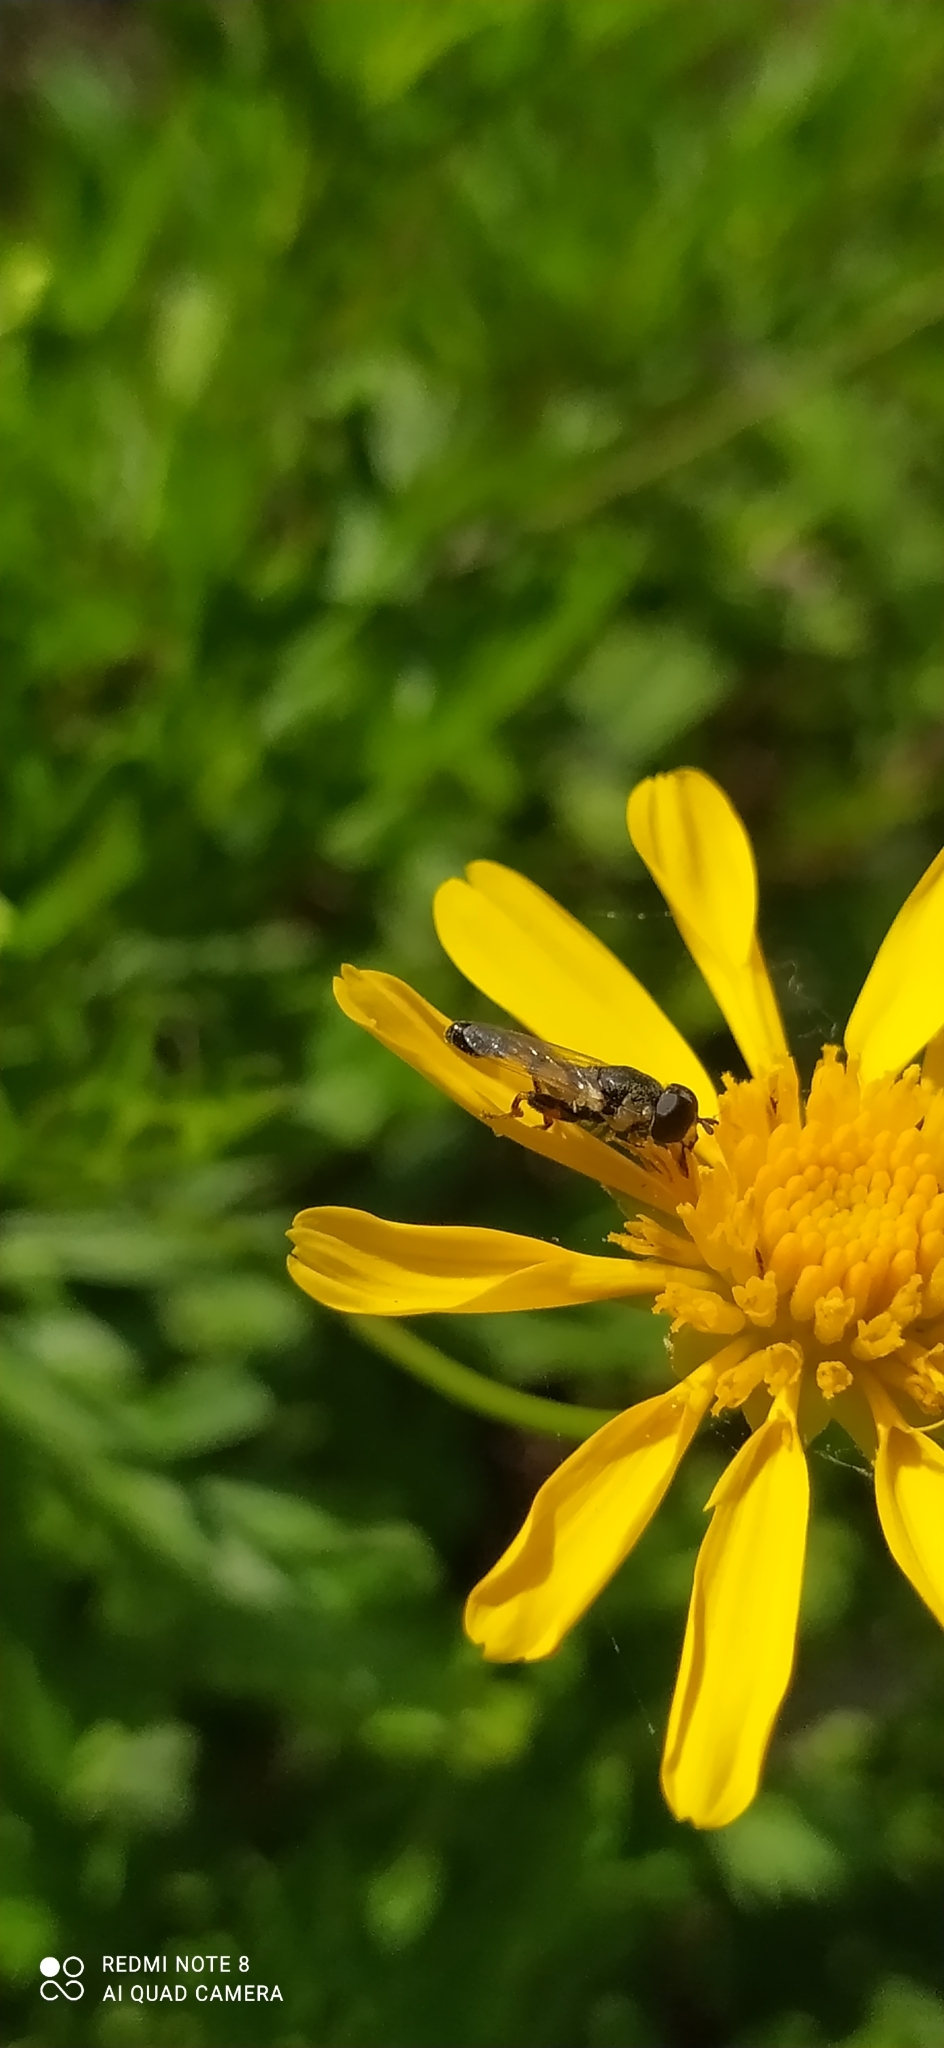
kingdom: Animalia
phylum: Arthropoda
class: Insecta
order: Diptera
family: Syrphidae
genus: Syritta
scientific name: Syritta flaviventris
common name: Syrphid fly
